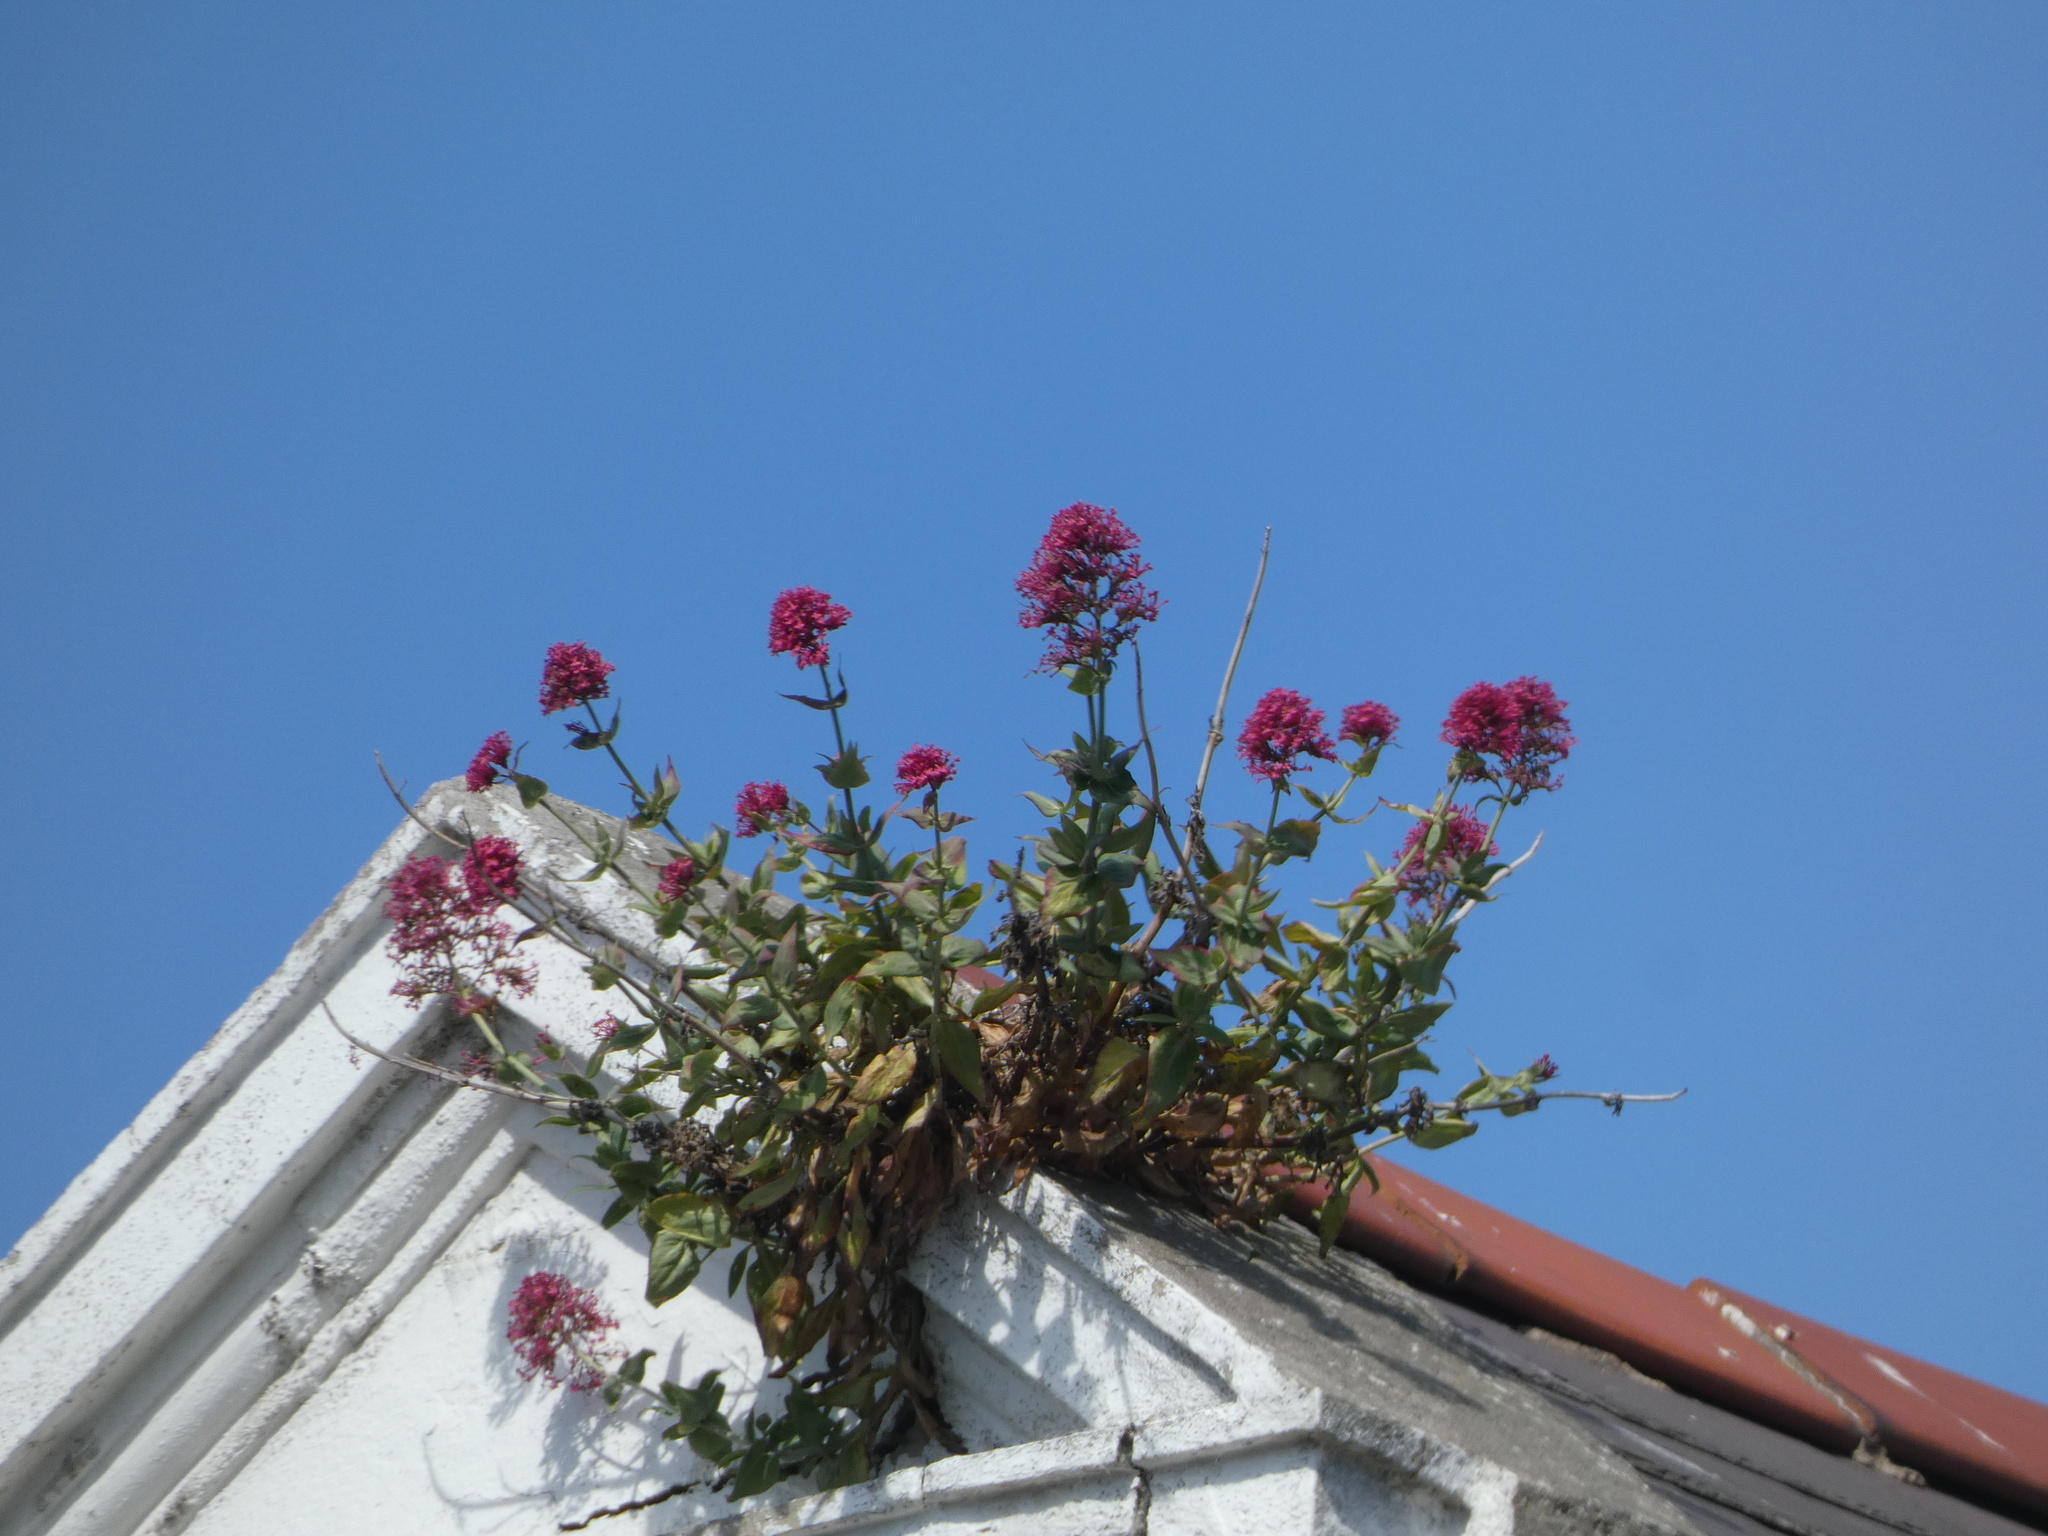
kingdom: Plantae
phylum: Tracheophyta
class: Magnoliopsida
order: Dipsacales
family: Caprifoliaceae
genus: Centranthus
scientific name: Centranthus ruber
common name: Red valerian
